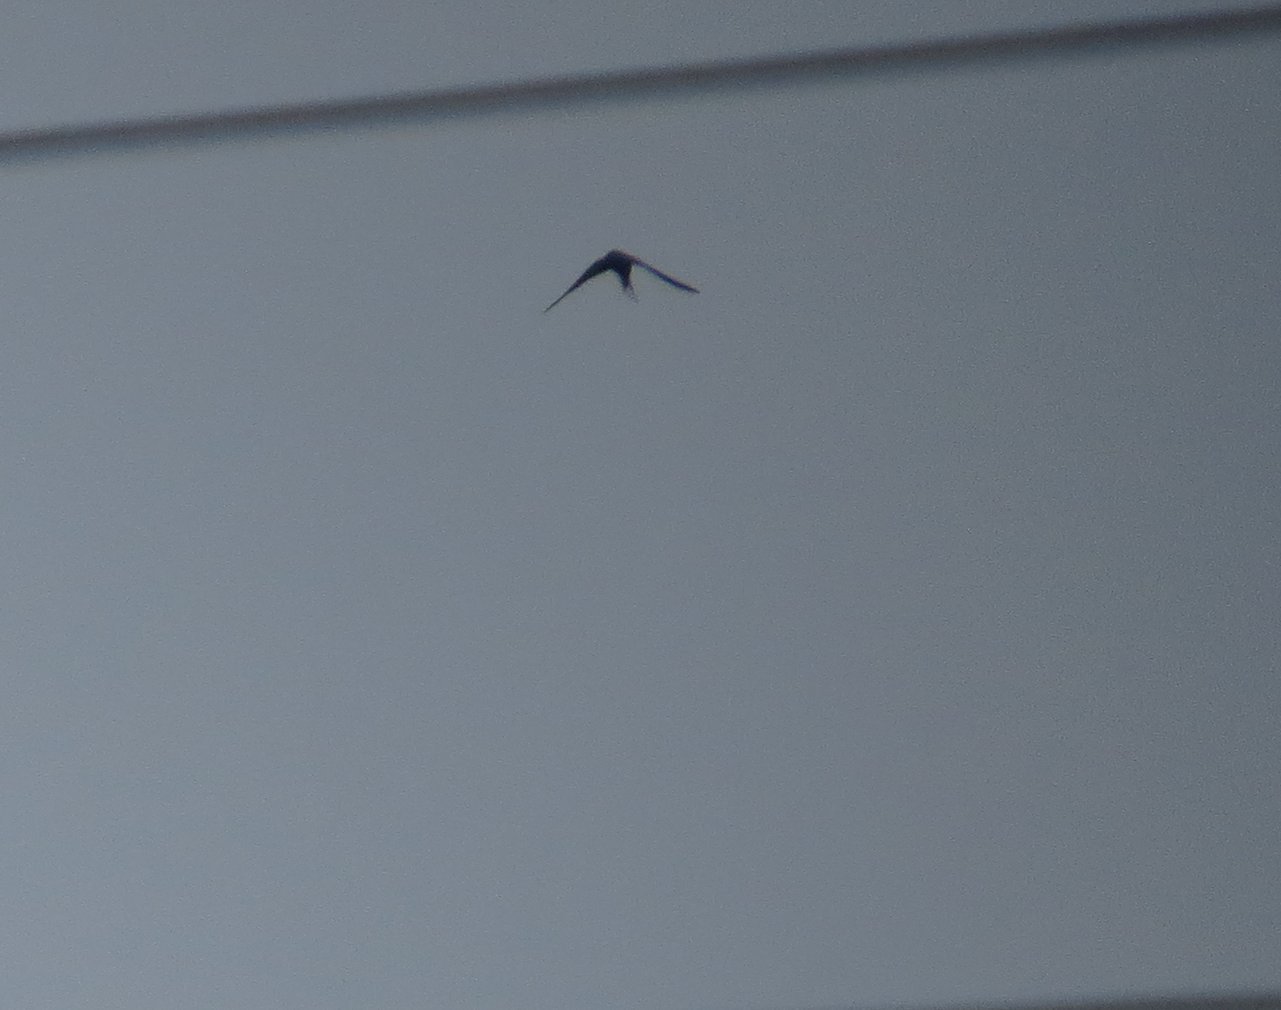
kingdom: Animalia
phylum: Chordata
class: Aves
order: Passeriformes
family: Hirundinidae
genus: Hirundo
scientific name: Hirundo rustica
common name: Barn swallow
